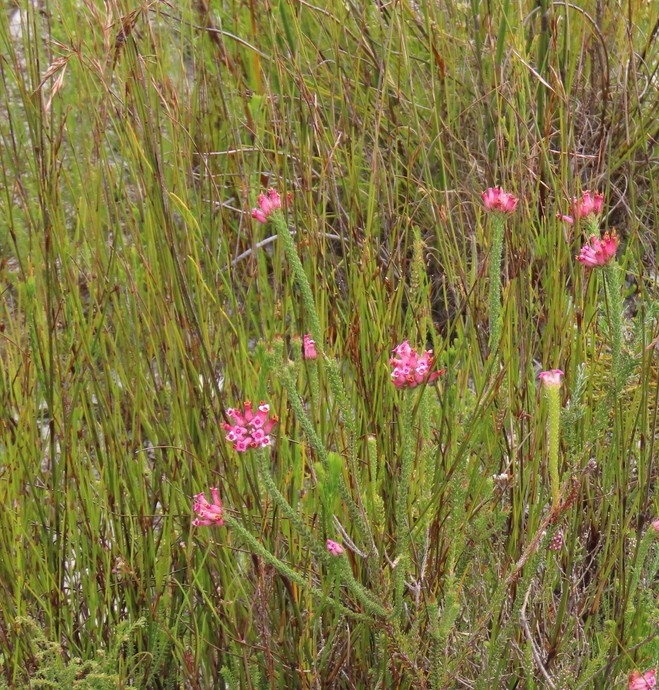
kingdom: Plantae
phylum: Tracheophyta
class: Magnoliopsida
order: Ericales
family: Ericaceae
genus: Erica
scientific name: Erica gysbertii
